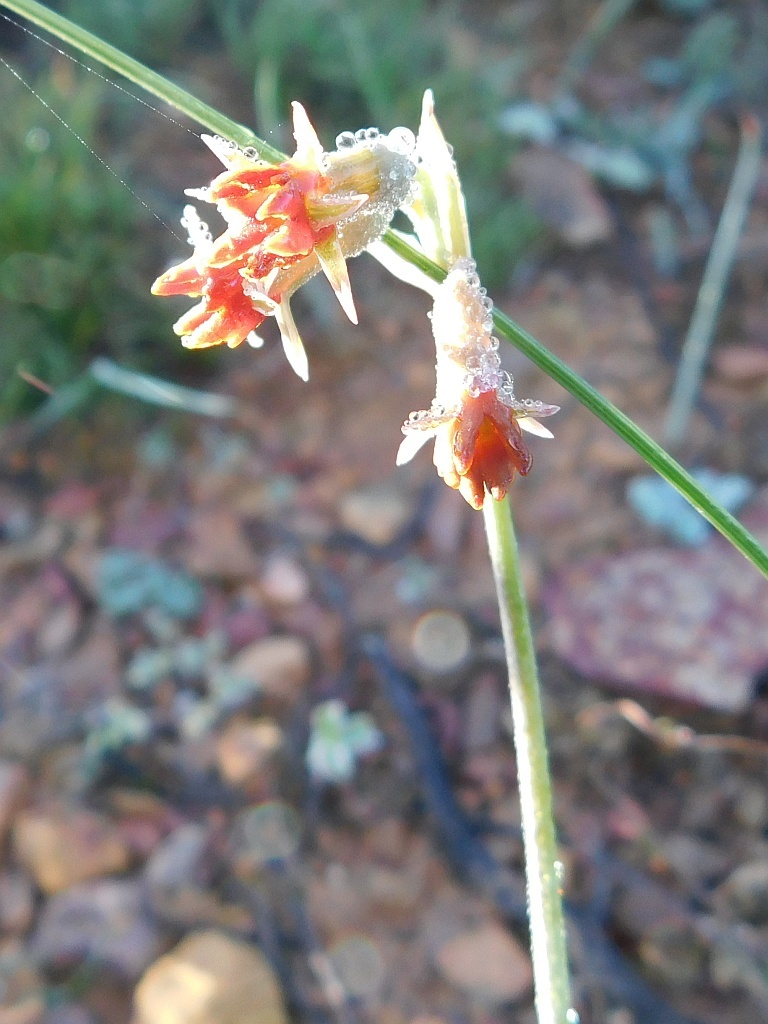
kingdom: Plantae
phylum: Tracheophyta
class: Liliopsida
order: Asparagales
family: Amaryllidaceae
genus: Tulbaghia
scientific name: Tulbaghia capensis
